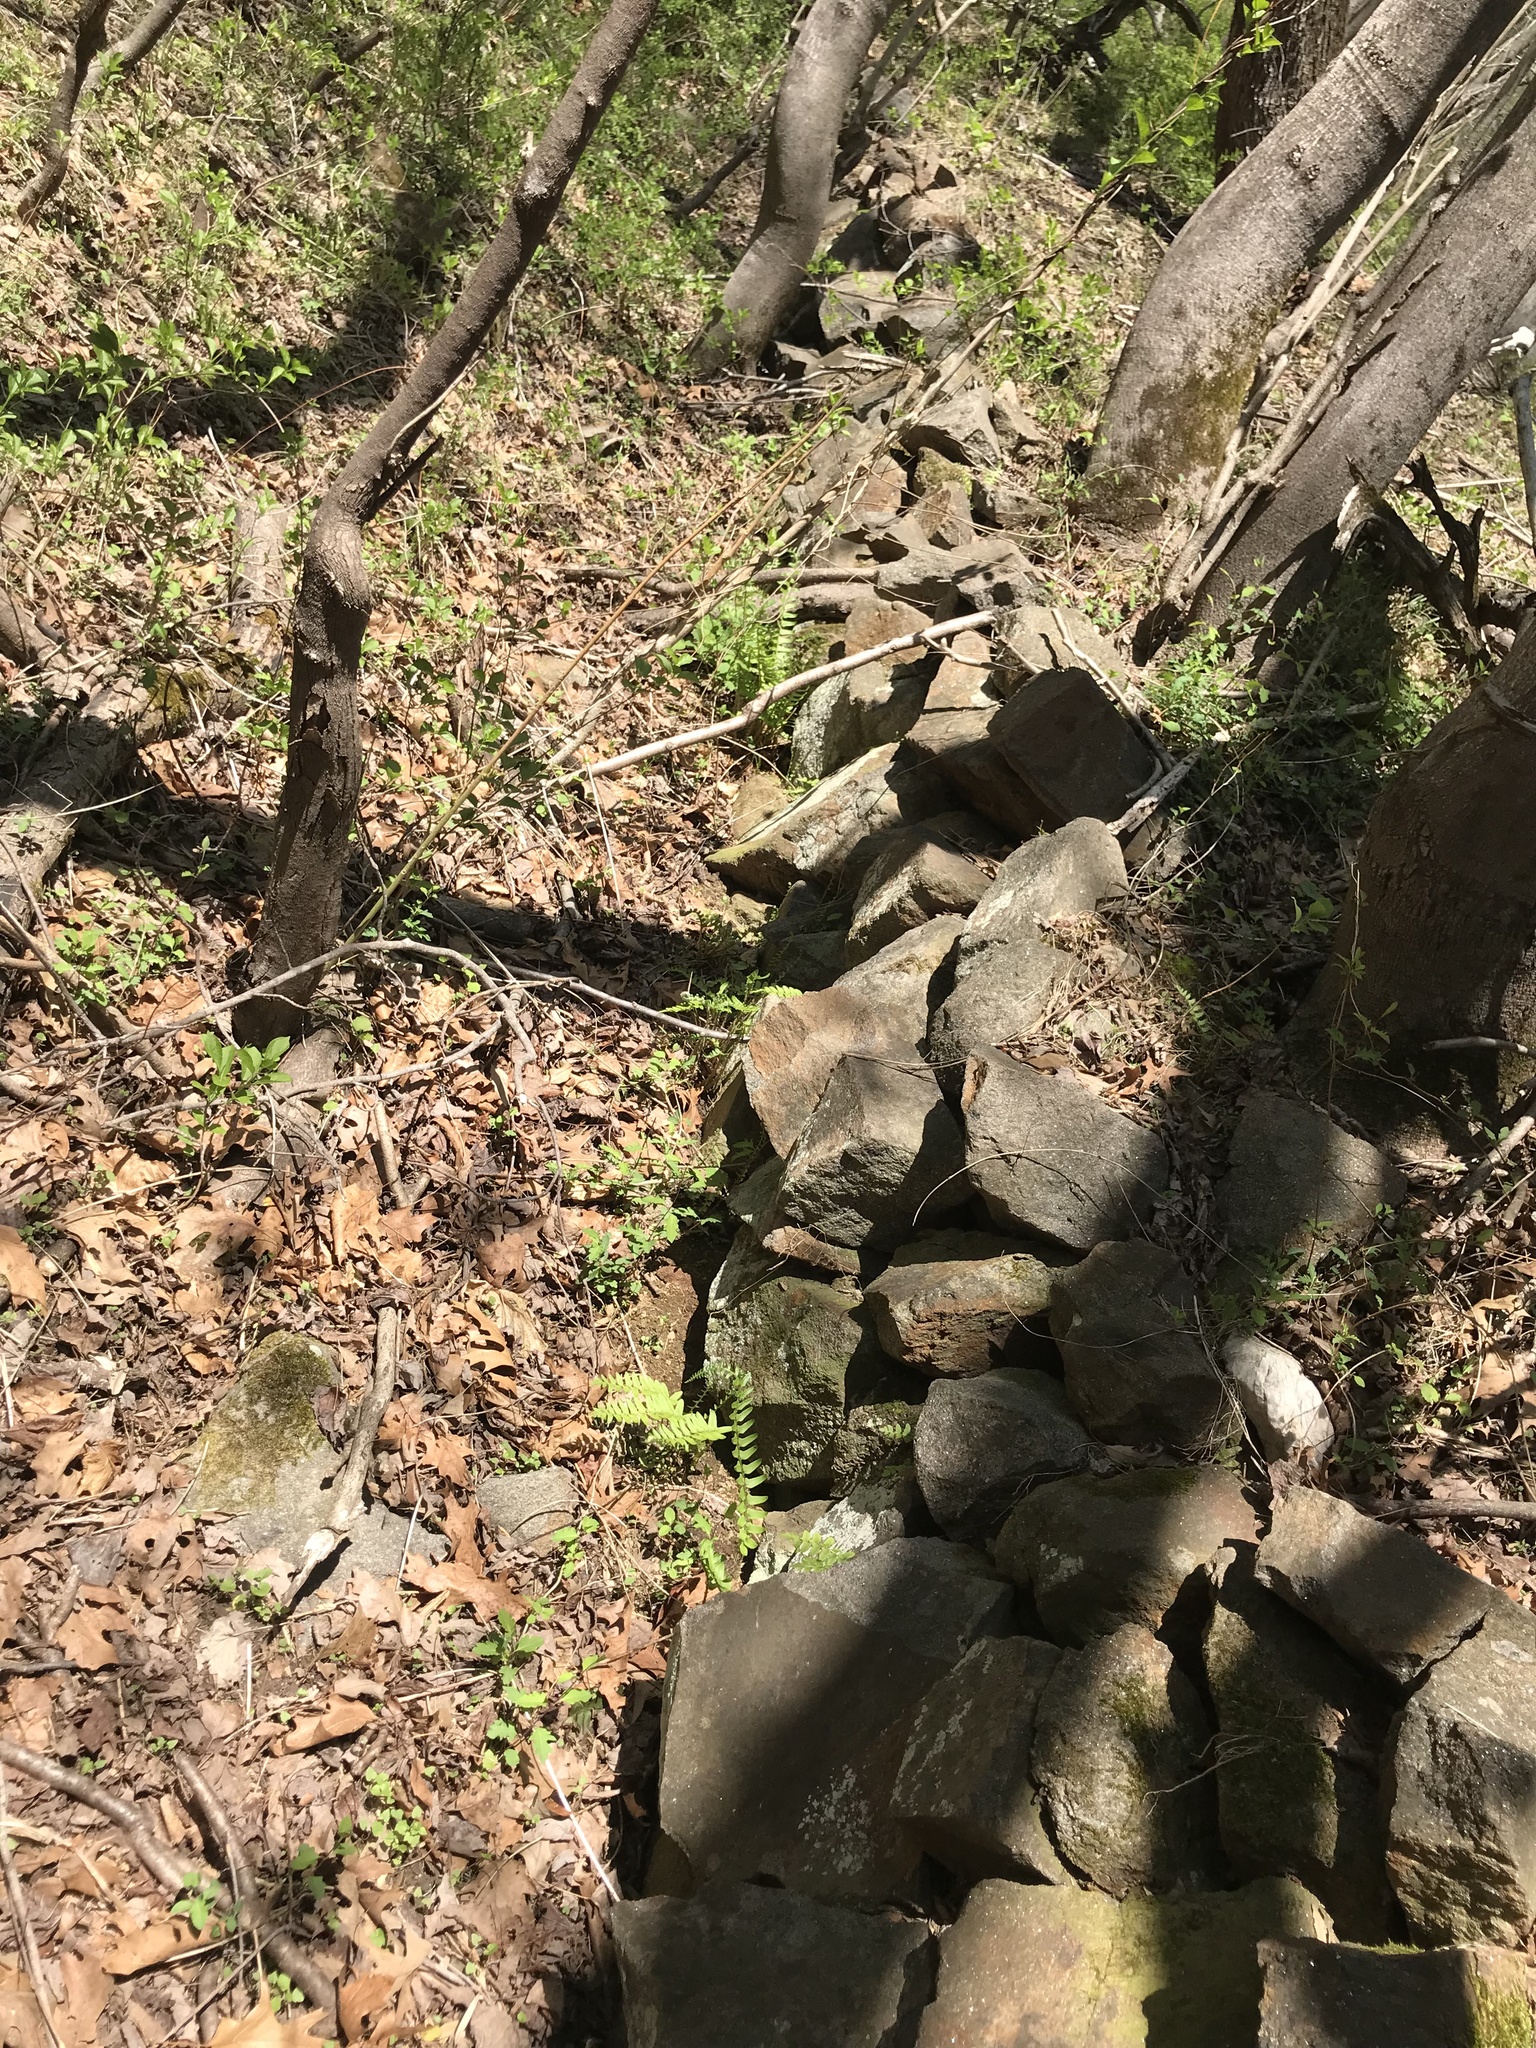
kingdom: Plantae
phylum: Tracheophyta
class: Polypodiopsida
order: Polypodiales
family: Dryopteridaceae
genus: Polystichum
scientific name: Polystichum acrostichoides
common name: Christmas fern
